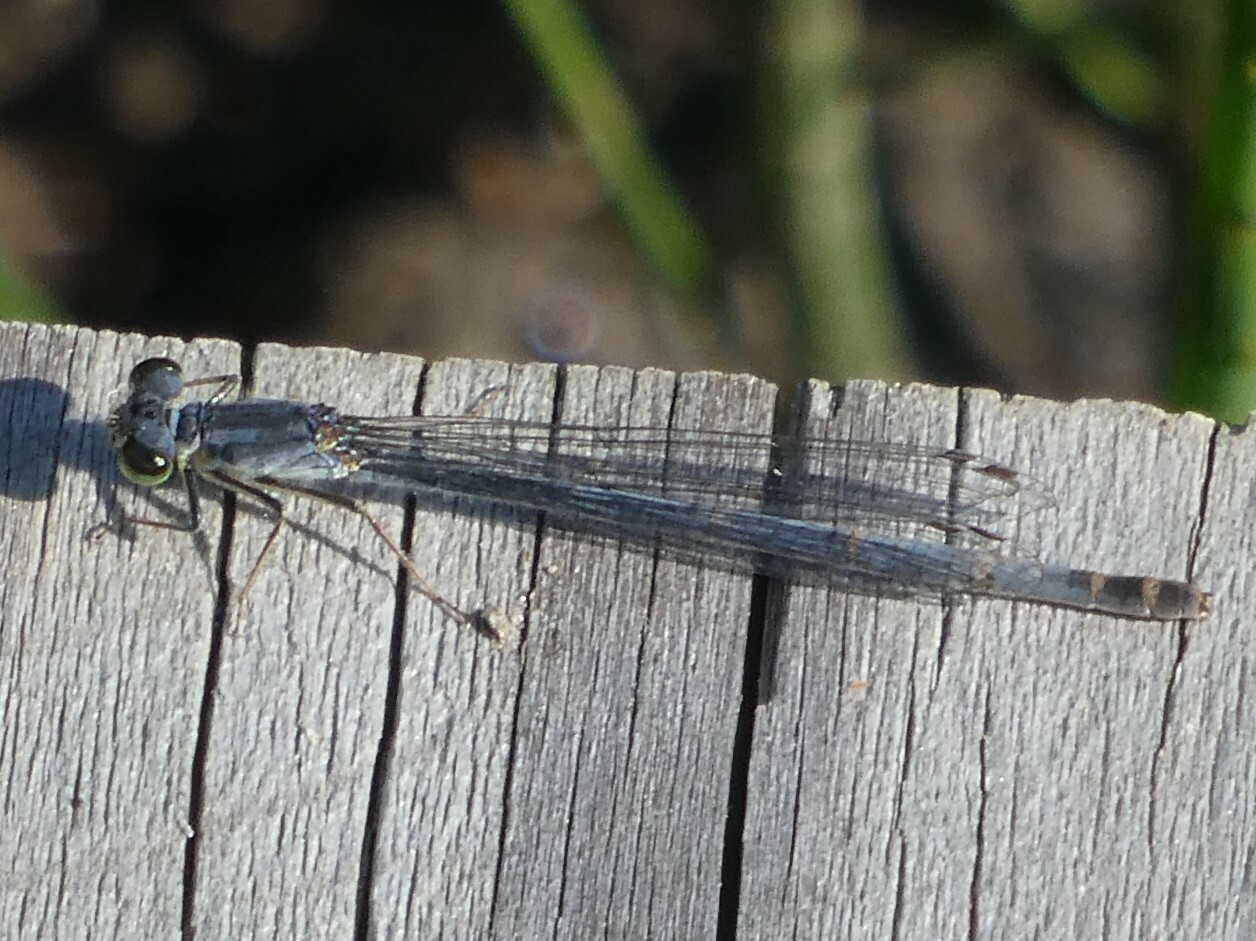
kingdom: Animalia
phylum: Arthropoda
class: Insecta
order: Odonata
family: Coenagrionidae
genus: Ischnura
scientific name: Ischnura posita
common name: Fragile forktail
